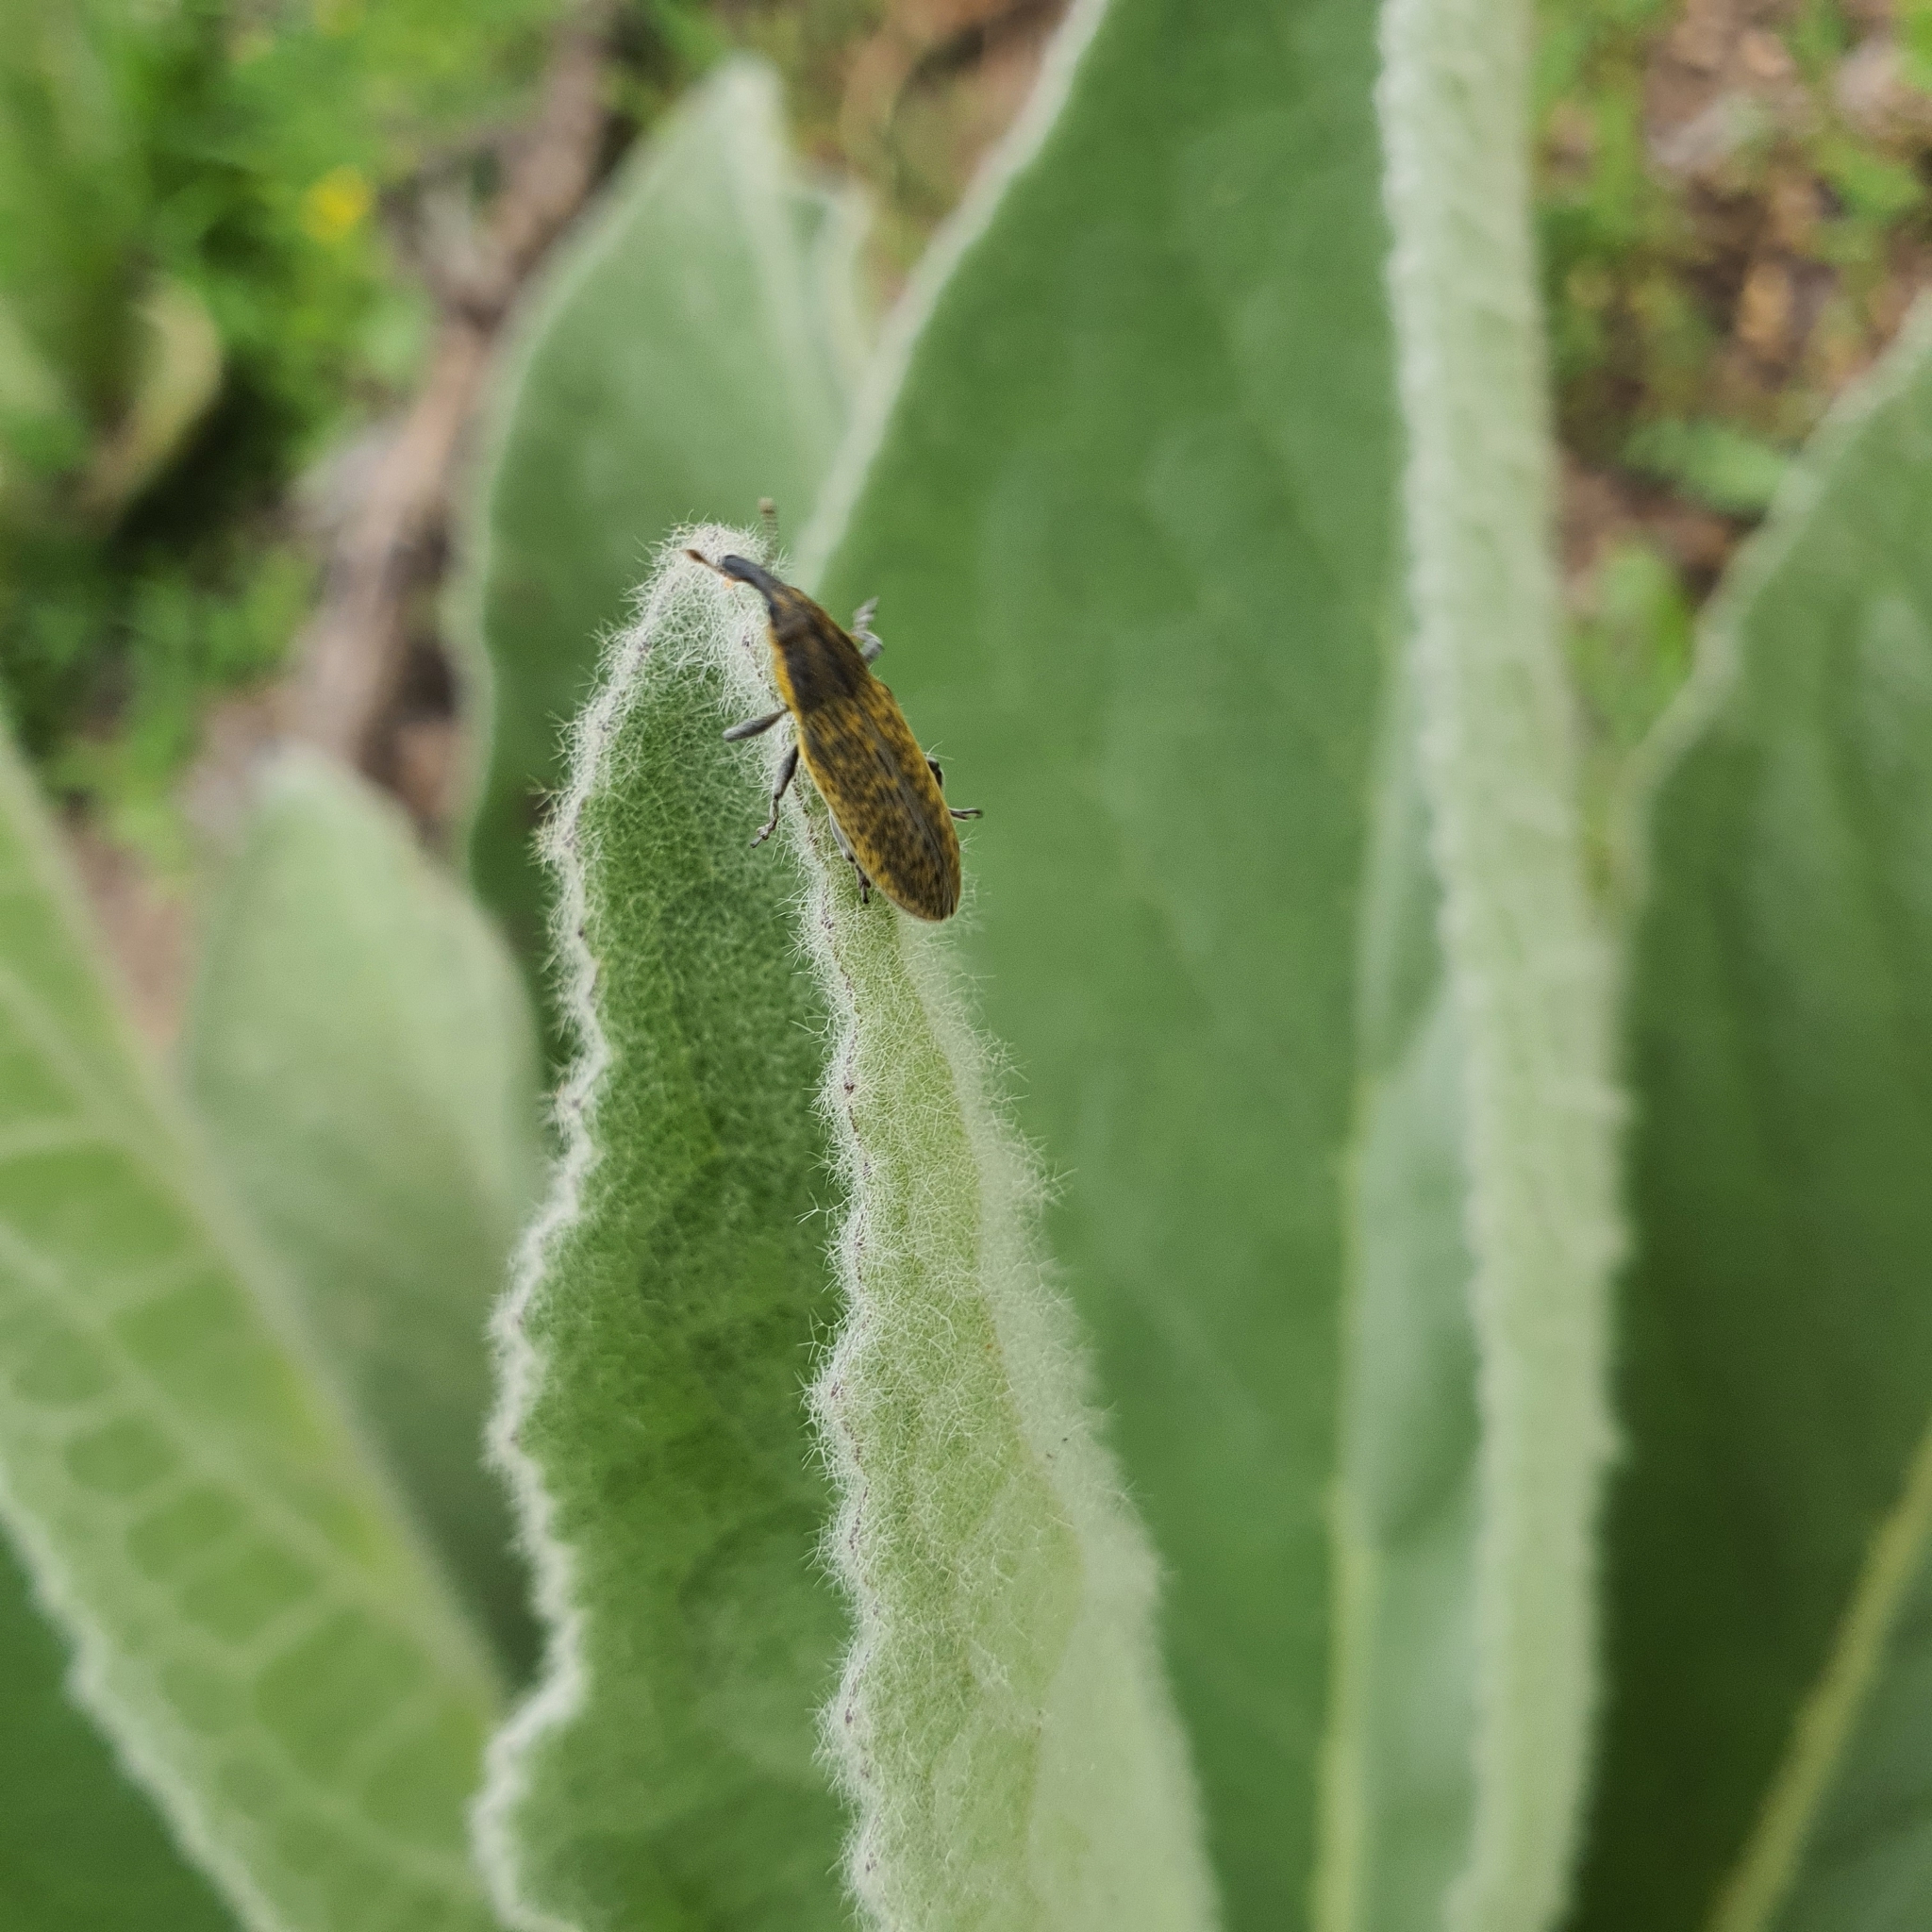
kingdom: Animalia
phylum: Arthropoda
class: Insecta
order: Coleoptera
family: Curculionidae
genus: Lixus
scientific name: Lixus cardui
